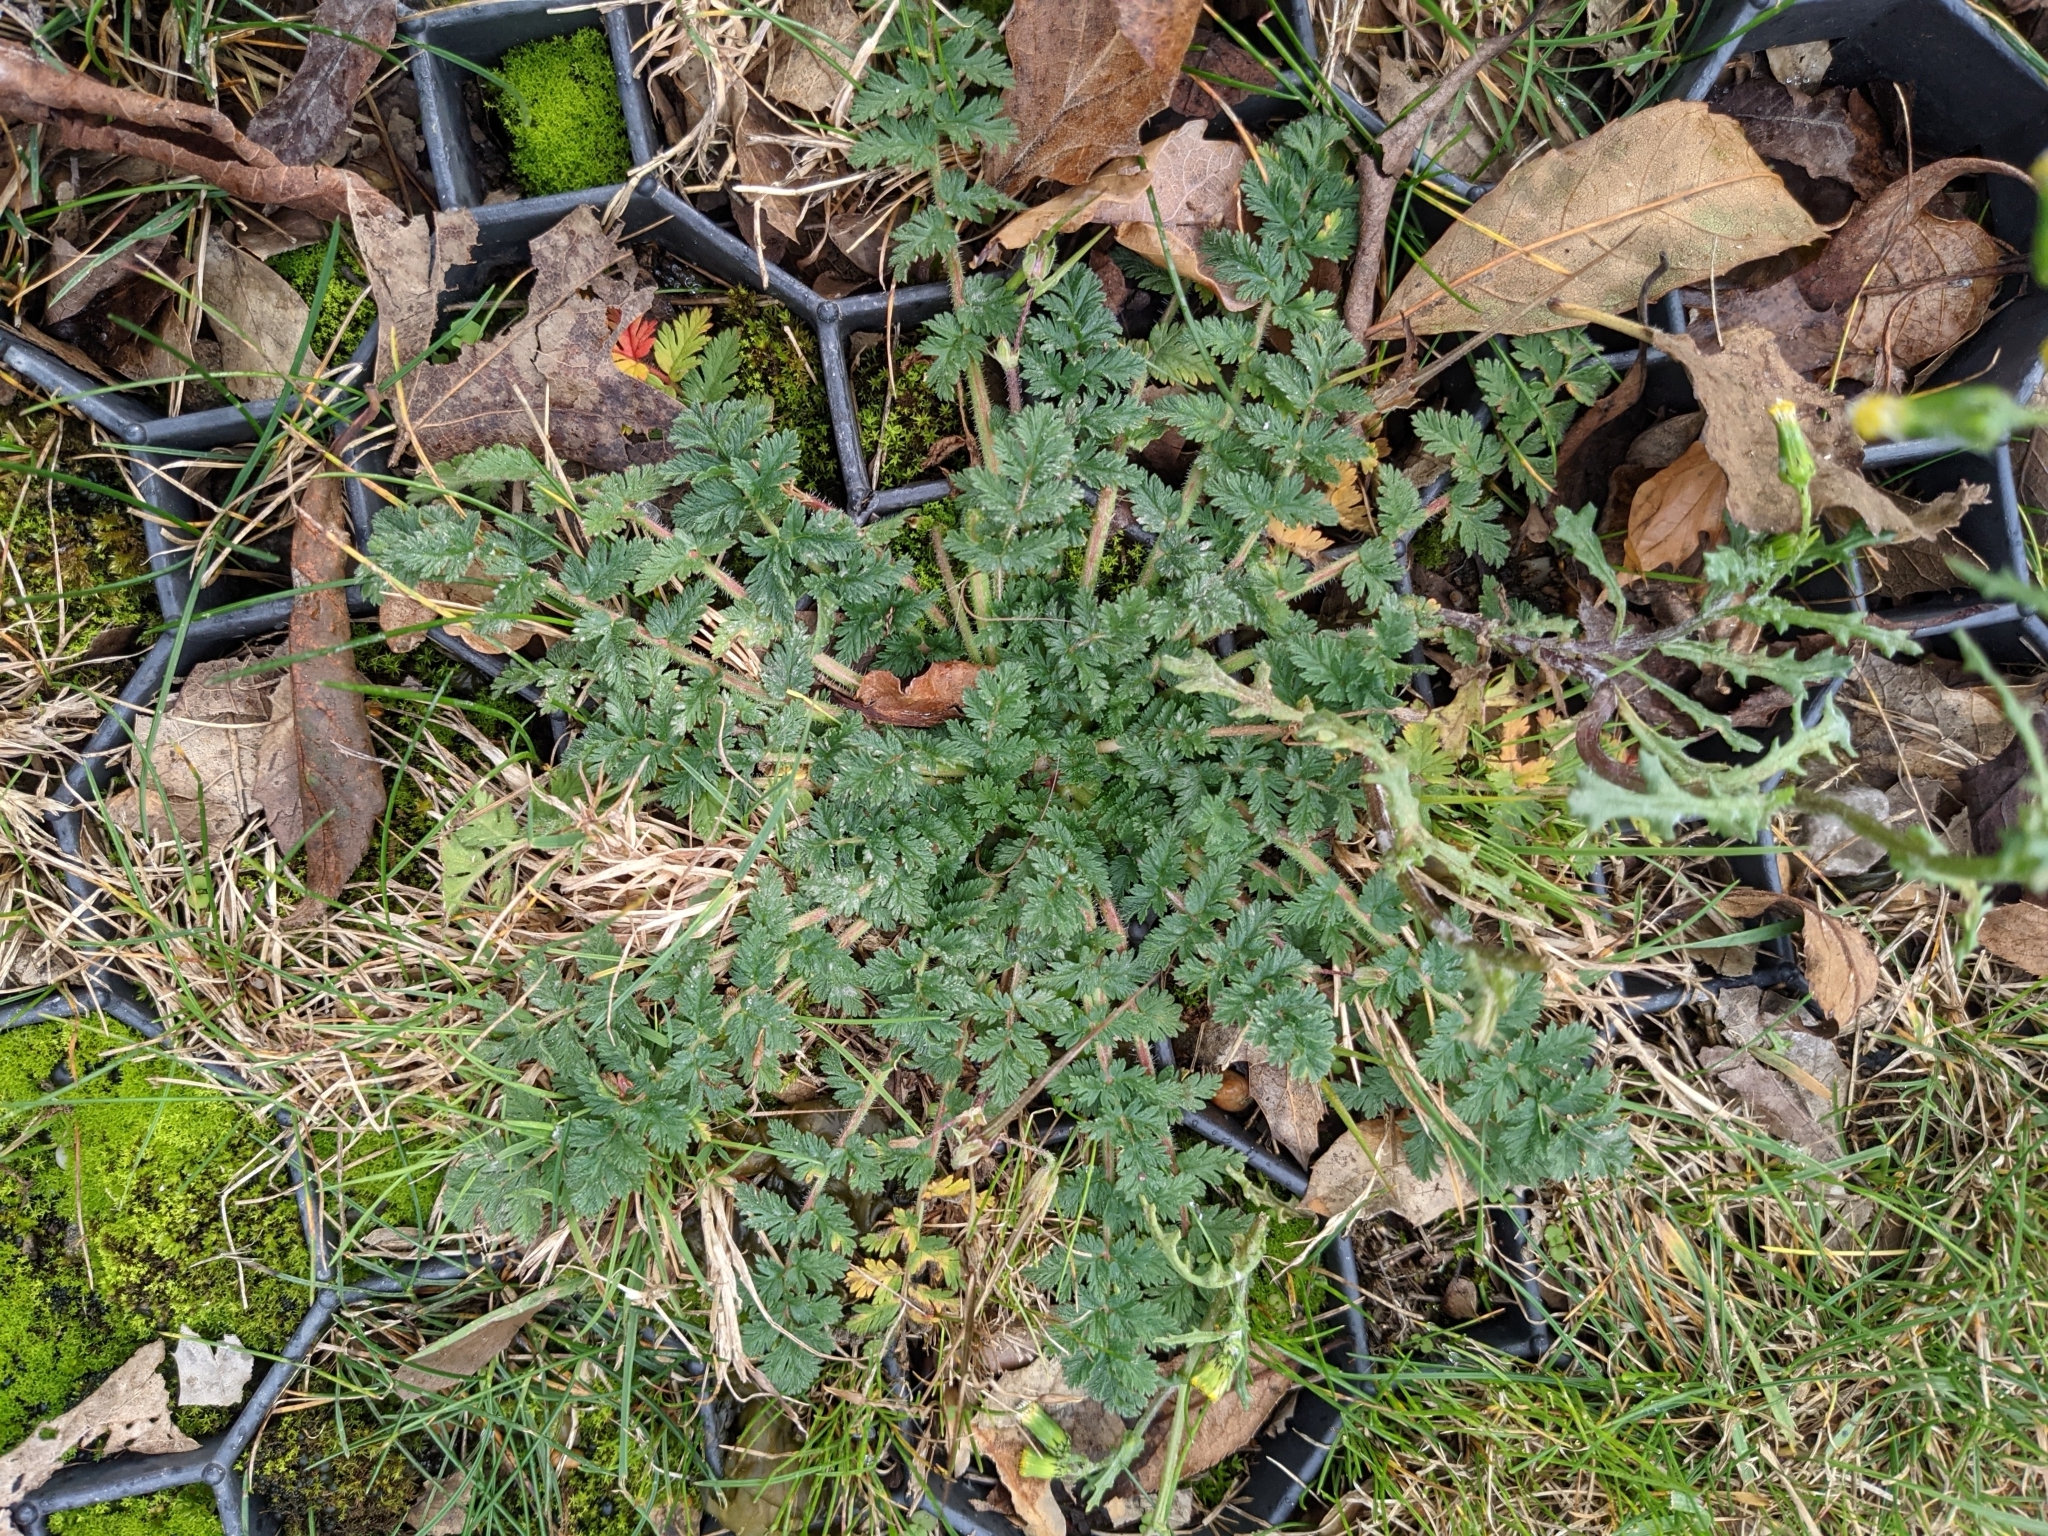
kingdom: Plantae
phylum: Tracheophyta
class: Magnoliopsida
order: Geraniales
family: Geraniaceae
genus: Erodium
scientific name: Erodium cicutarium
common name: Common stork's-bill
